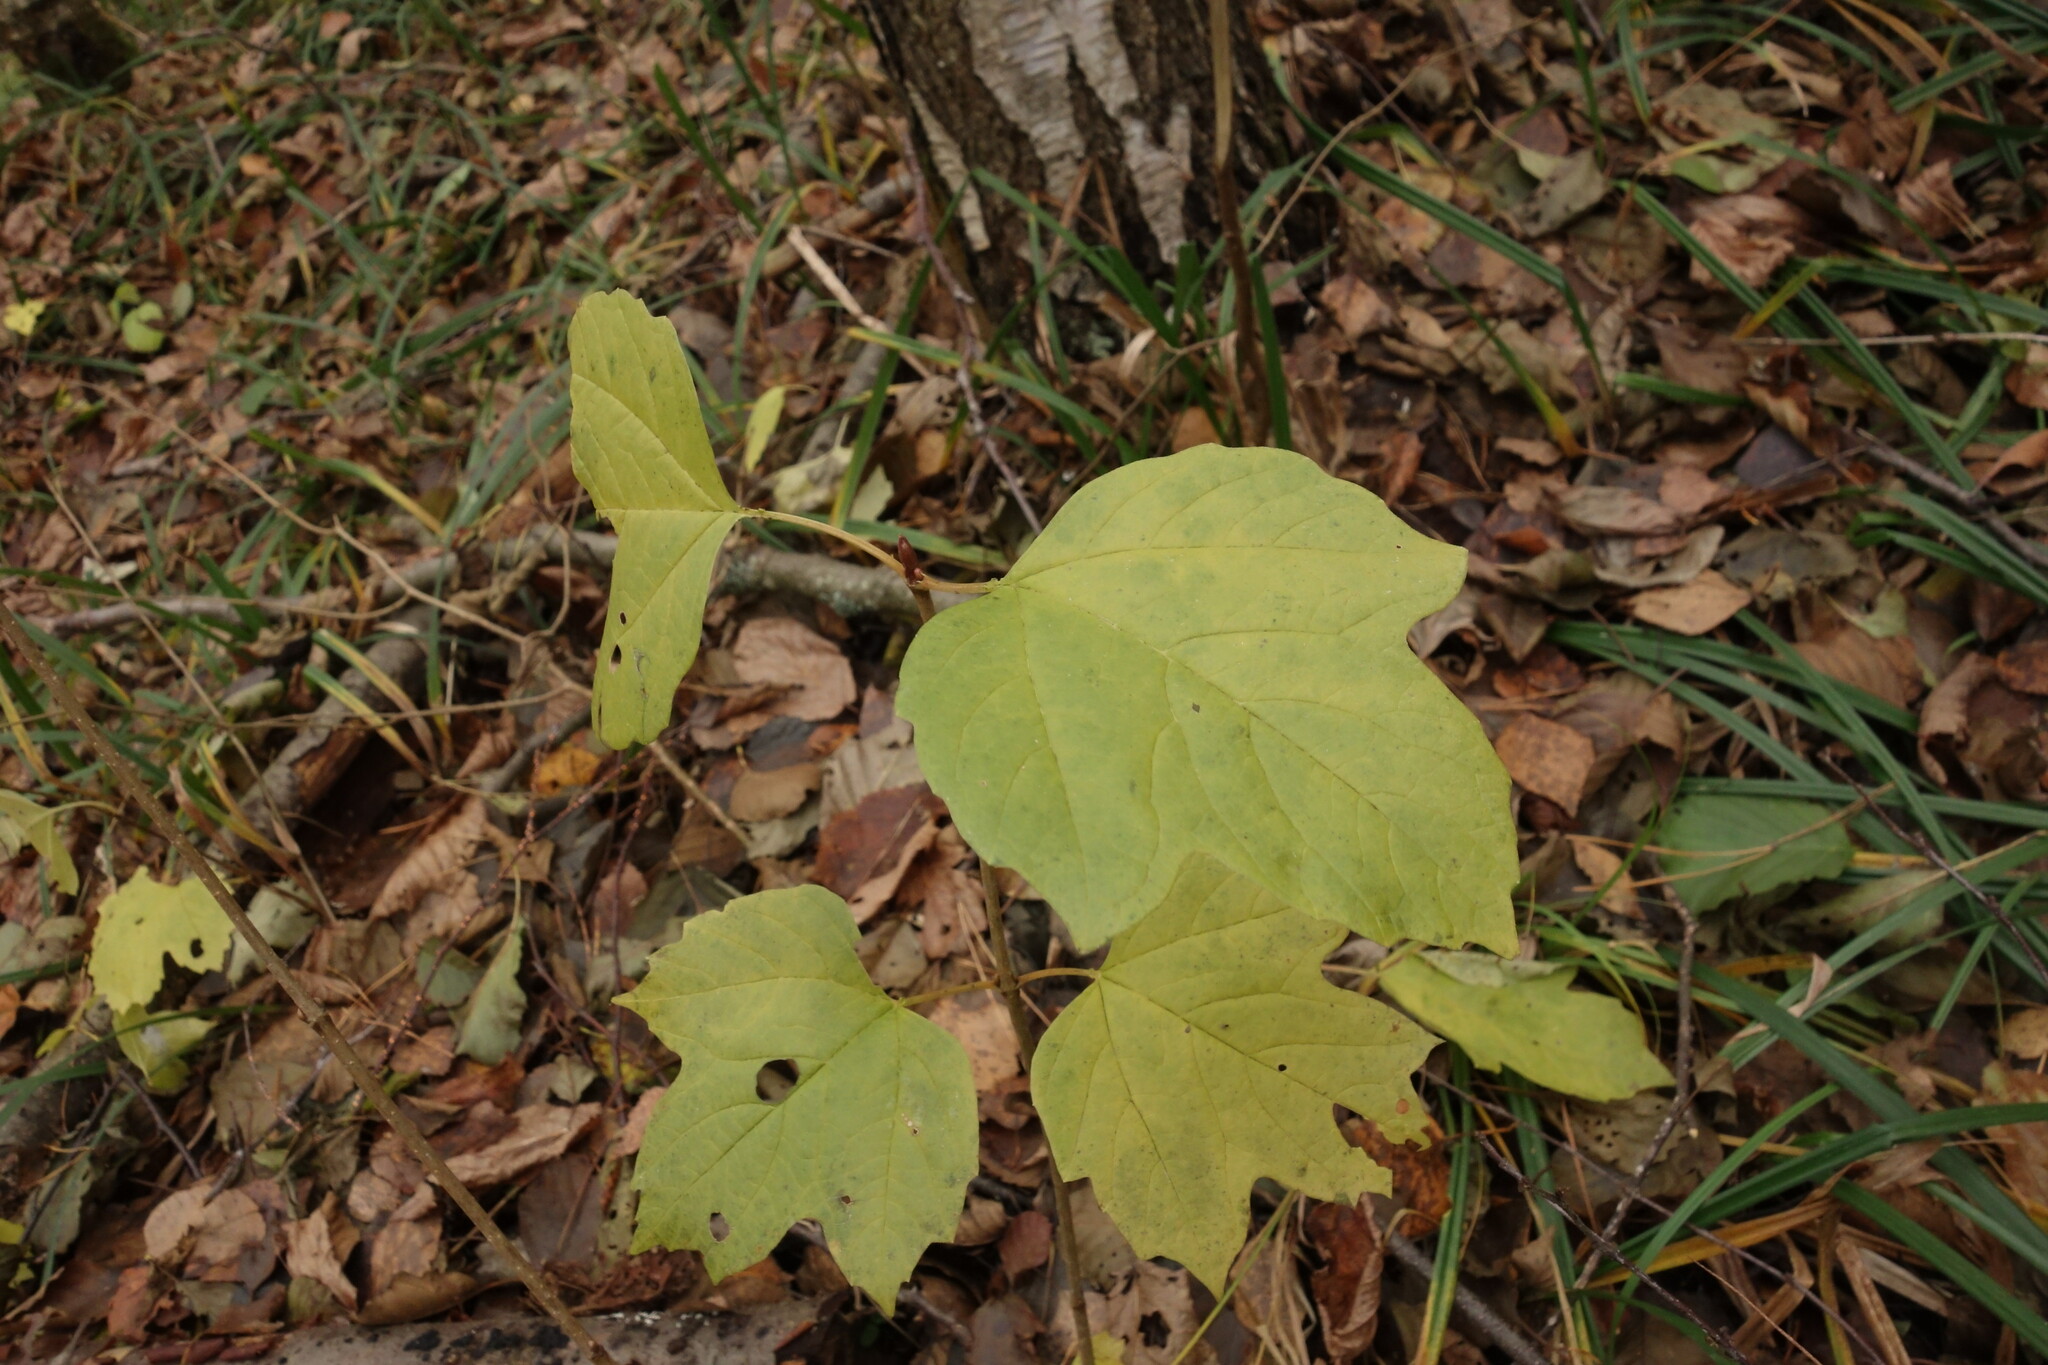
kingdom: Plantae
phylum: Tracheophyta
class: Magnoliopsida
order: Dipsacales
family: Viburnaceae
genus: Viburnum
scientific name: Viburnum opulus
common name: Guelder-rose
